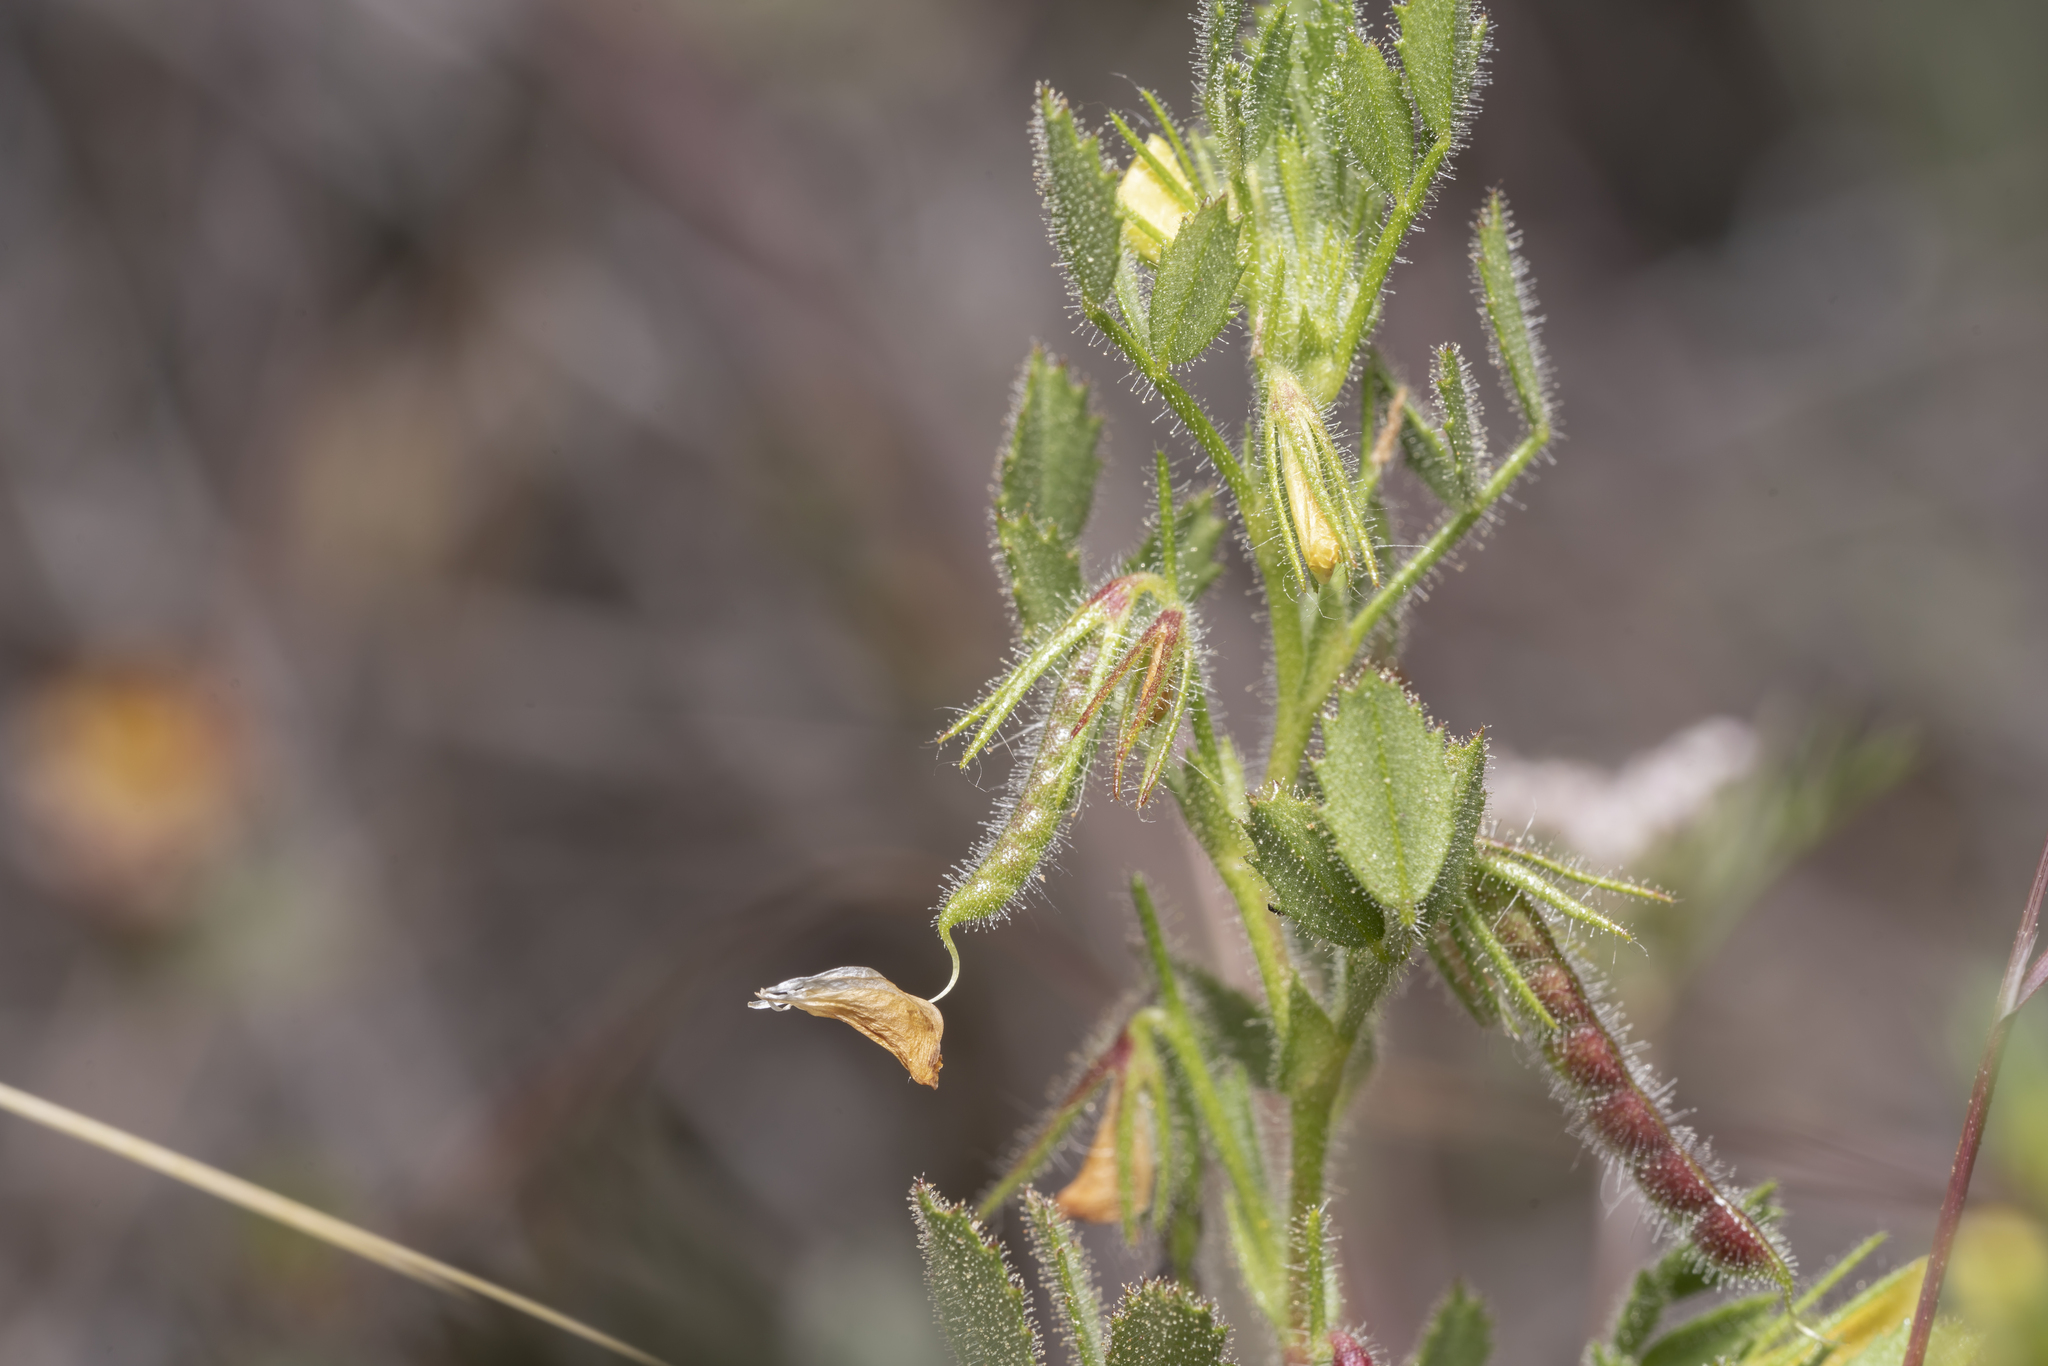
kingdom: Plantae
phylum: Tracheophyta
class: Magnoliopsida
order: Fabales
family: Fabaceae
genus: Ononis
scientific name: Ononis ornithopodioides
